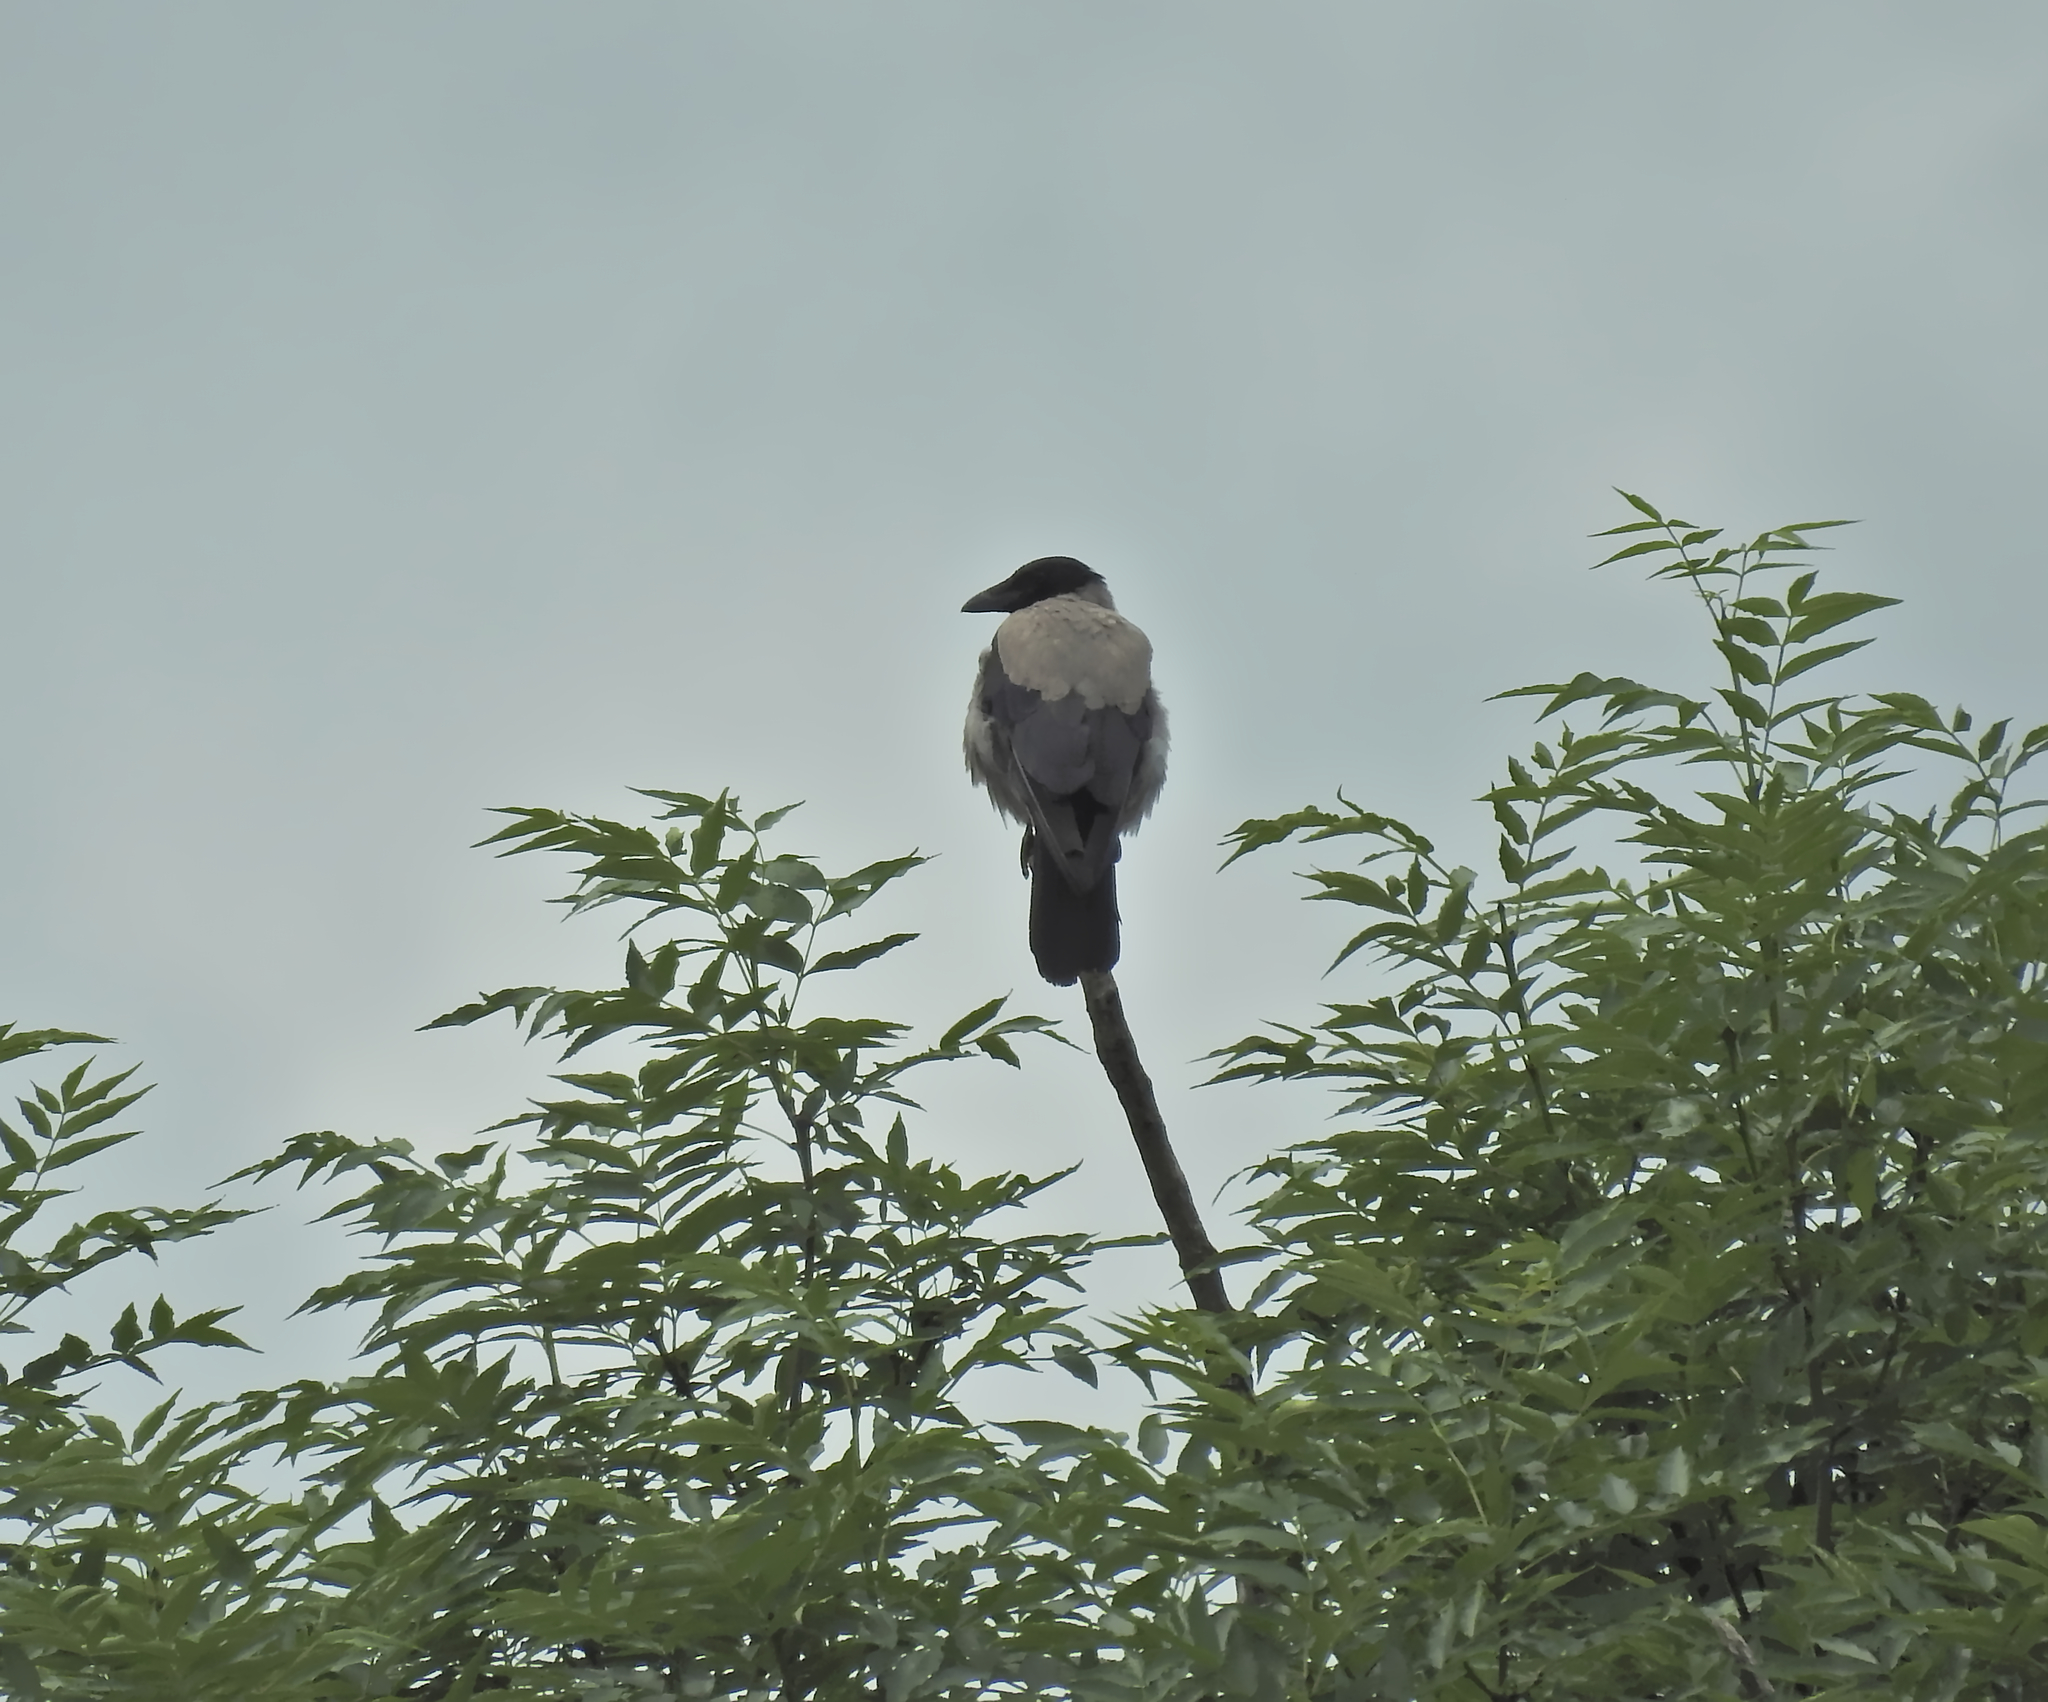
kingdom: Animalia
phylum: Chordata
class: Aves
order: Passeriformes
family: Corvidae
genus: Corvus
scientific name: Corvus cornix
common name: Hooded crow
